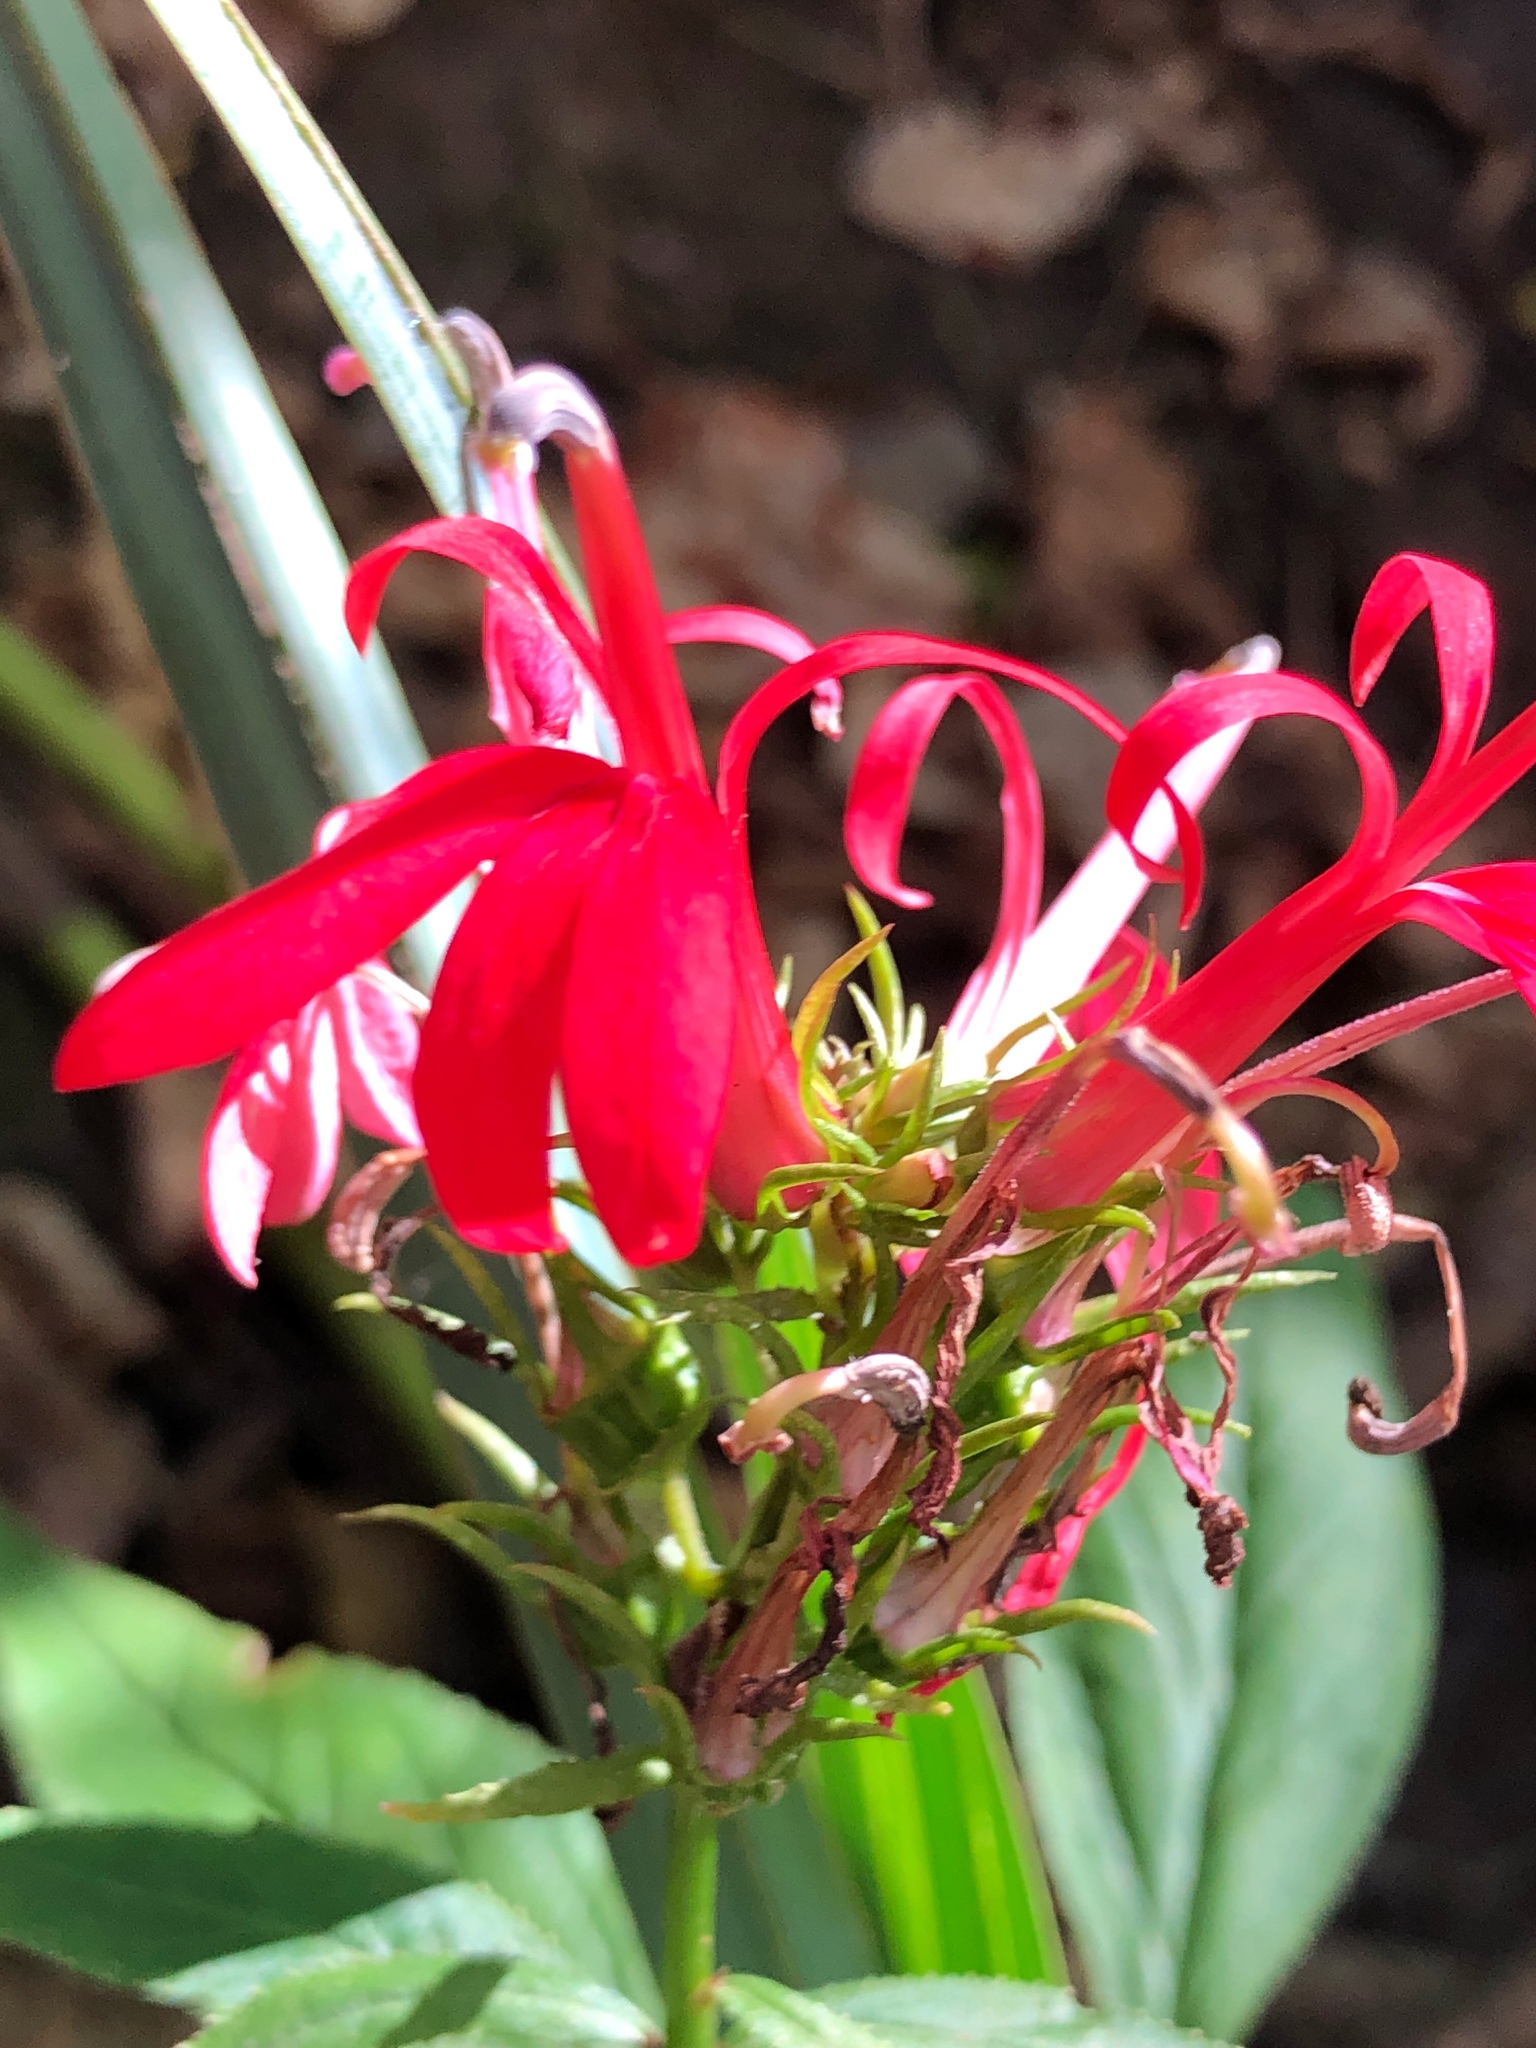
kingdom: Plantae
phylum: Tracheophyta
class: Magnoliopsida
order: Asterales
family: Campanulaceae
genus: Lobelia
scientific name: Lobelia cardinalis
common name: Cardinal flower
